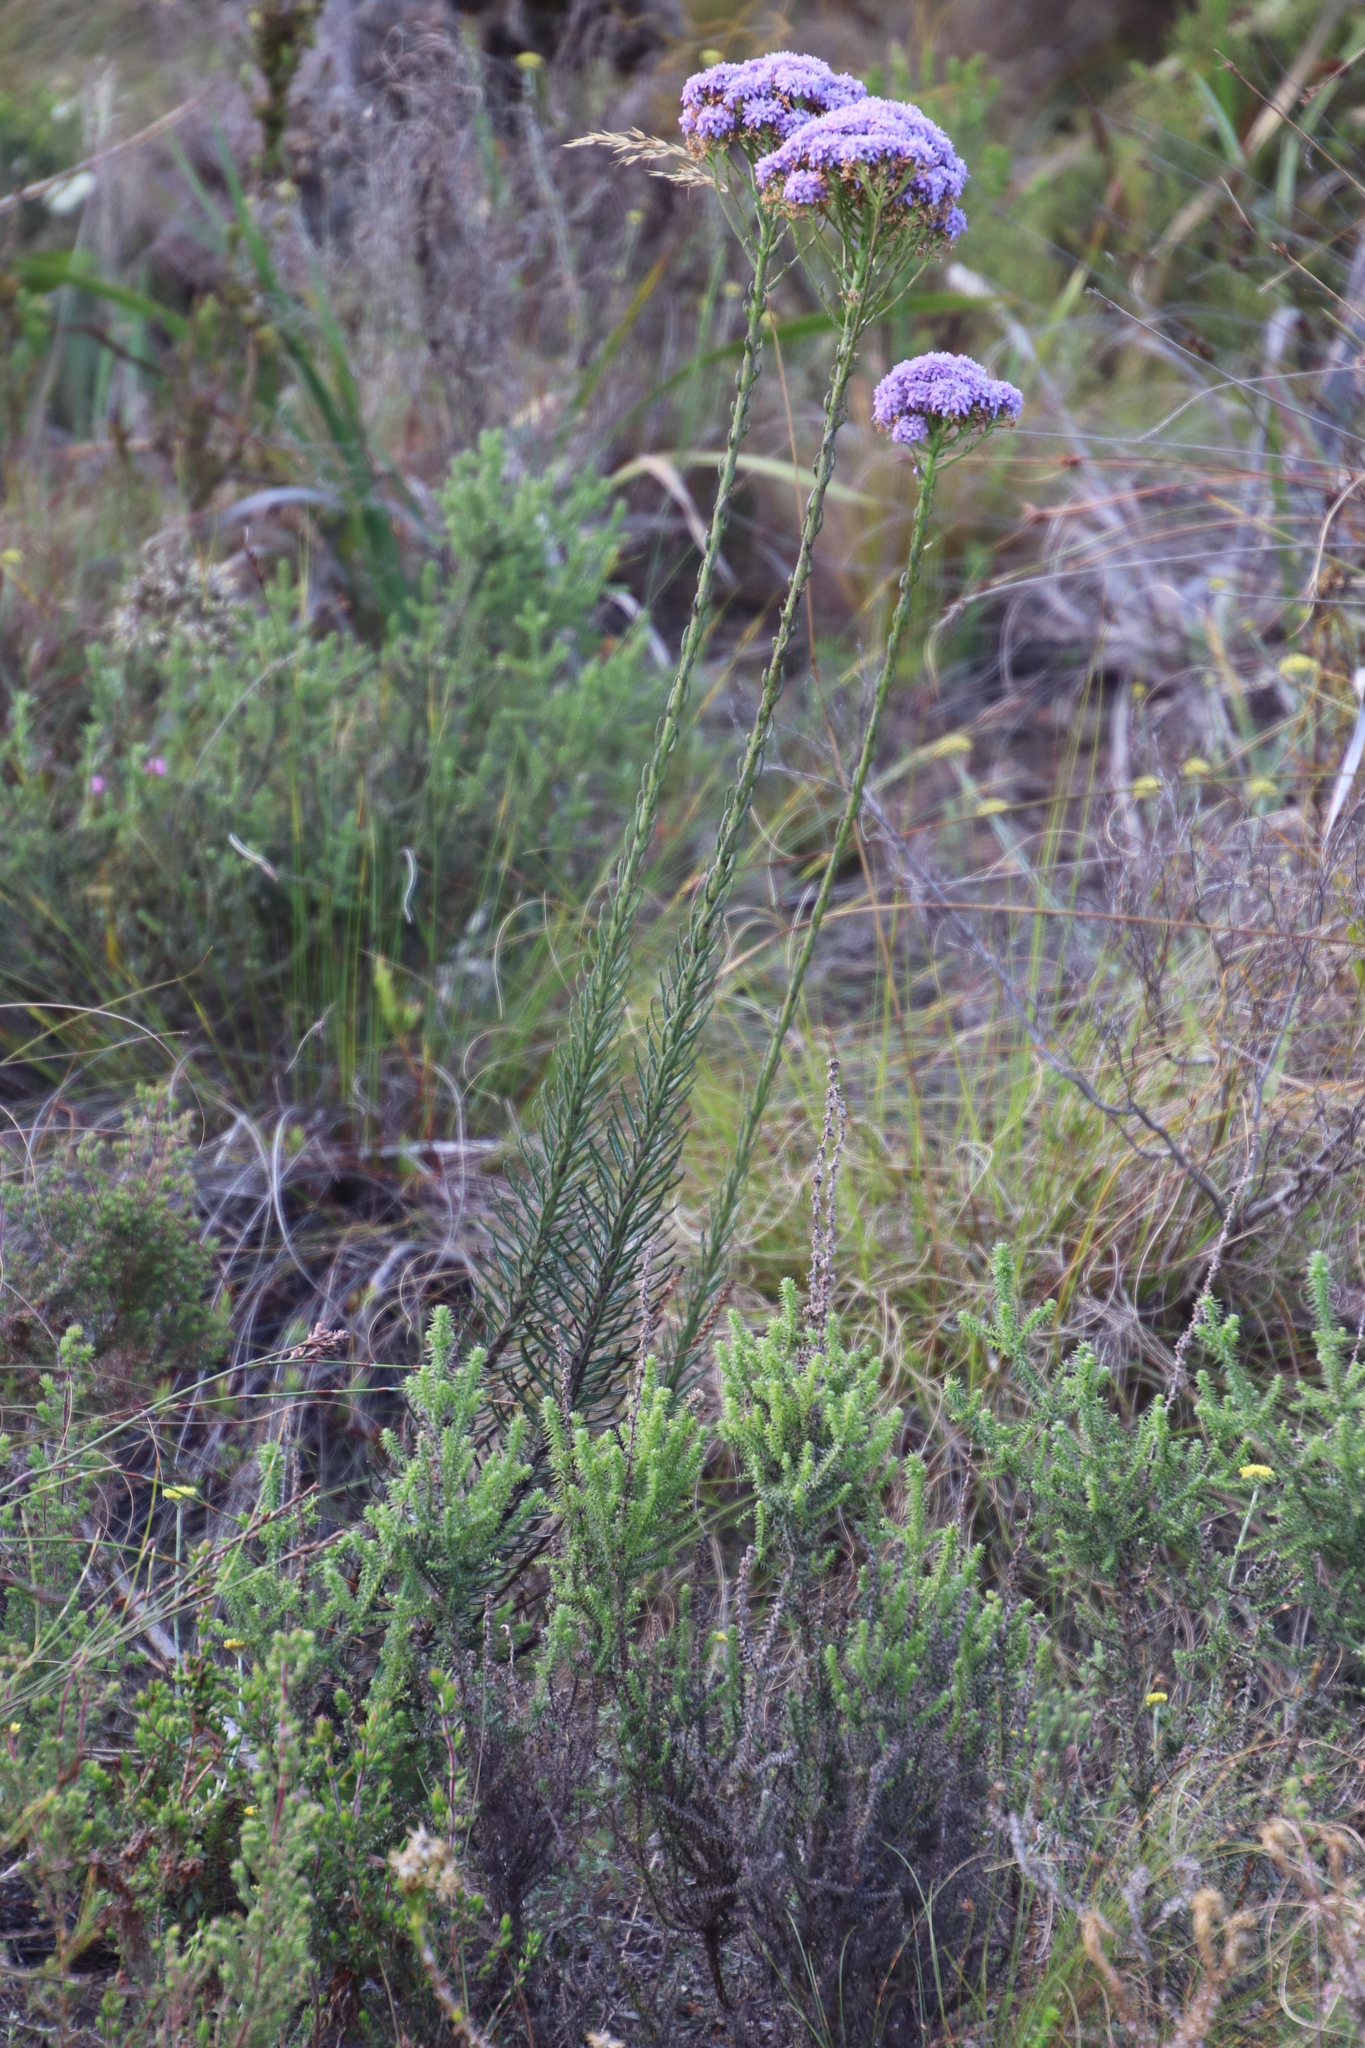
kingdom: Plantae
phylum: Tracheophyta
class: Magnoliopsida
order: Lamiales
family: Scrophulariaceae
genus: Pseudoselago
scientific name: Pseudoselago spuria
